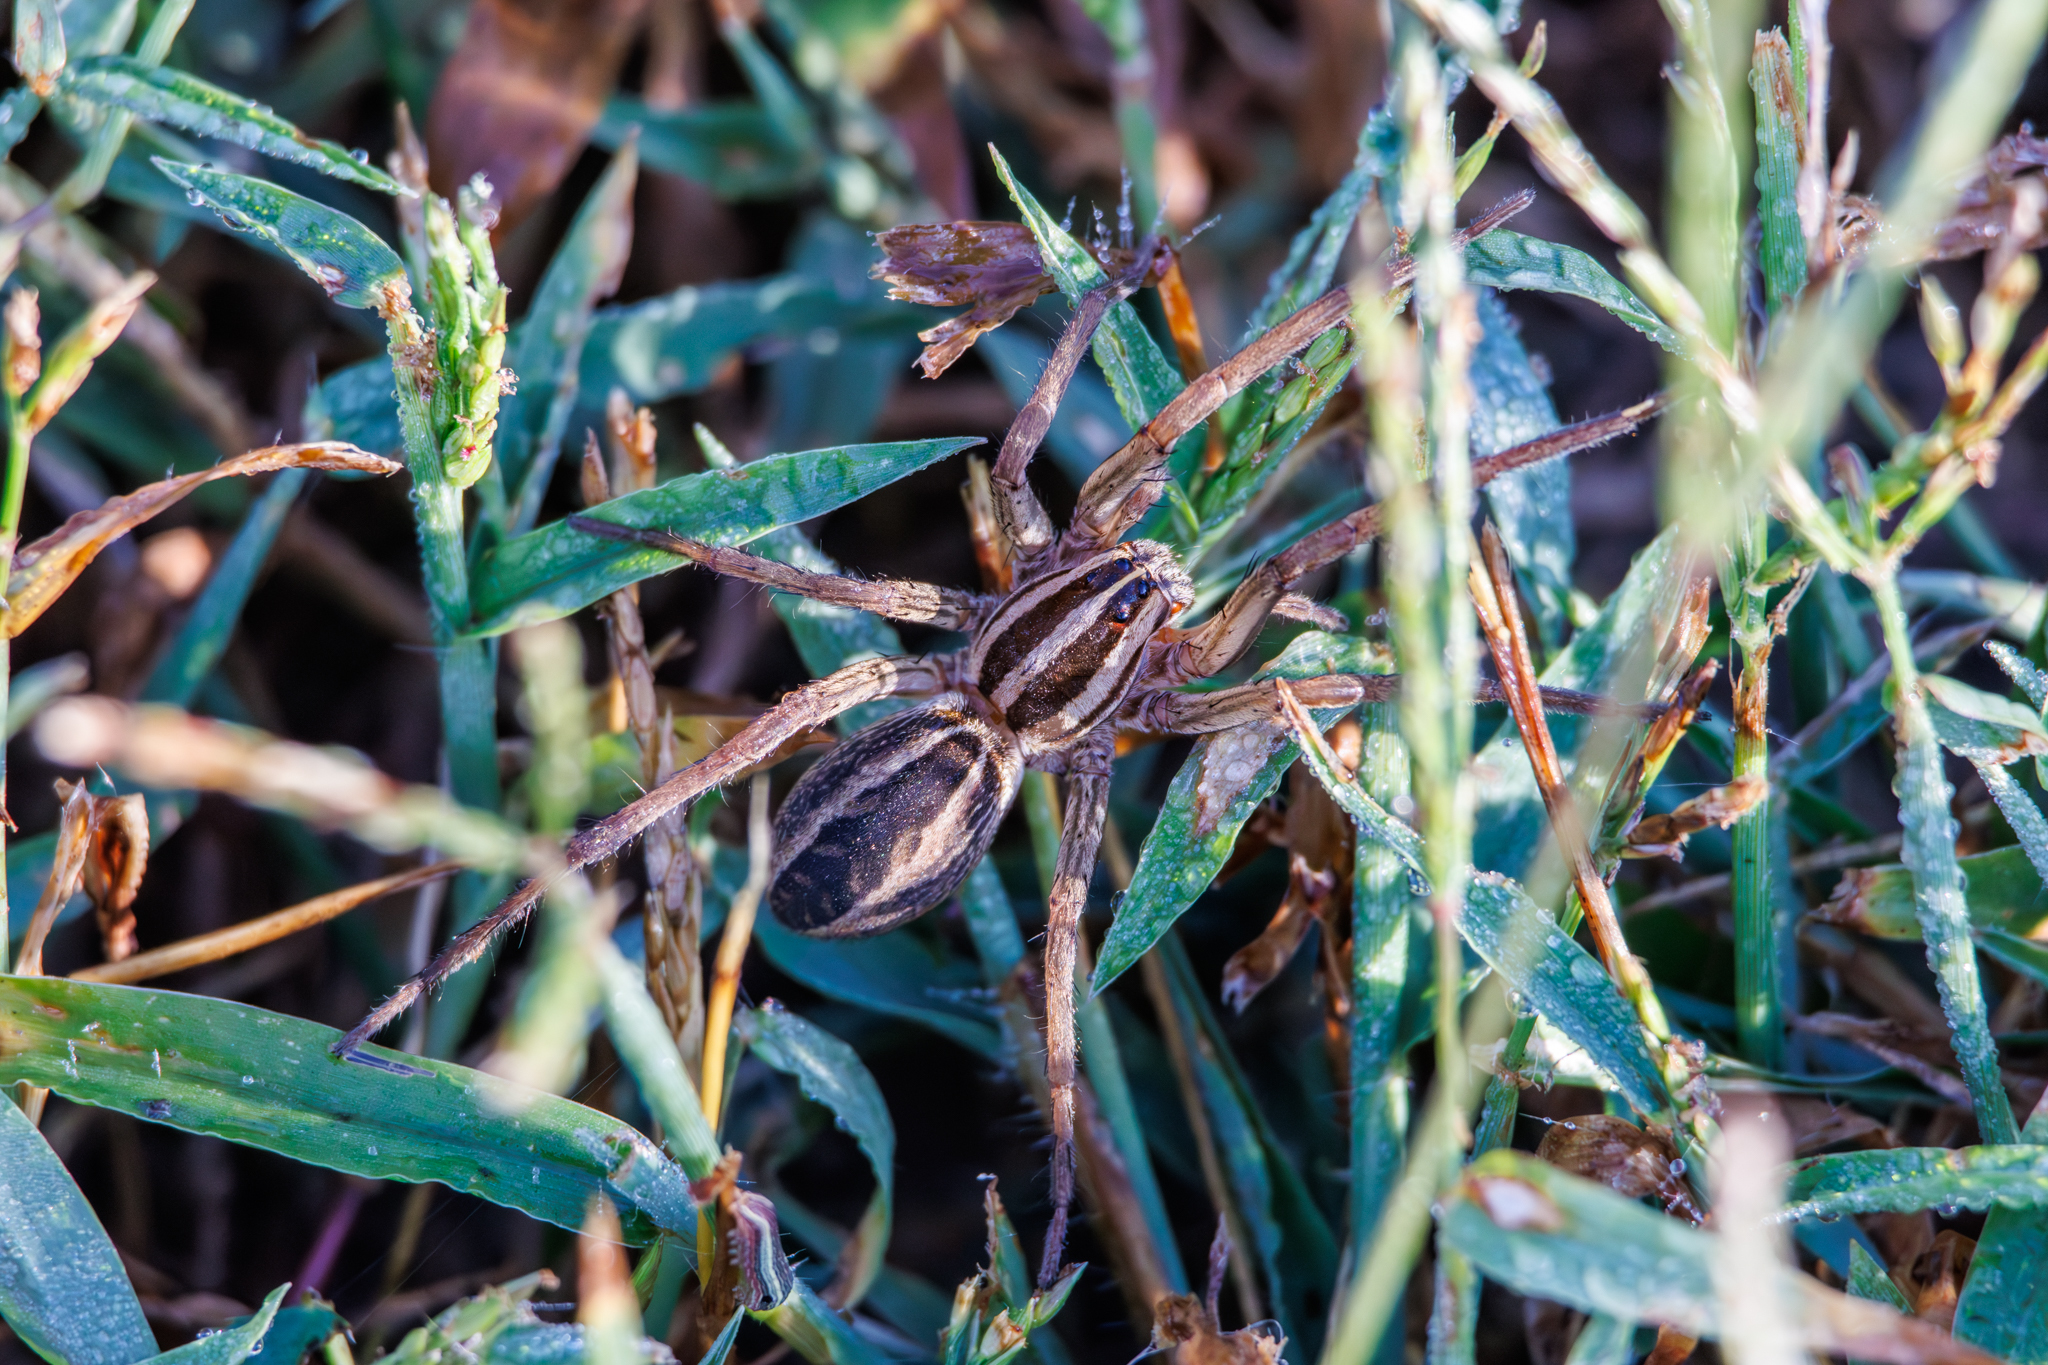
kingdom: Animalia
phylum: Arthropoda
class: Arachnida
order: Araneae
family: Lycosidae
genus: Rabidosa
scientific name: Rabidosa rabida
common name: Rabid wolf spider
